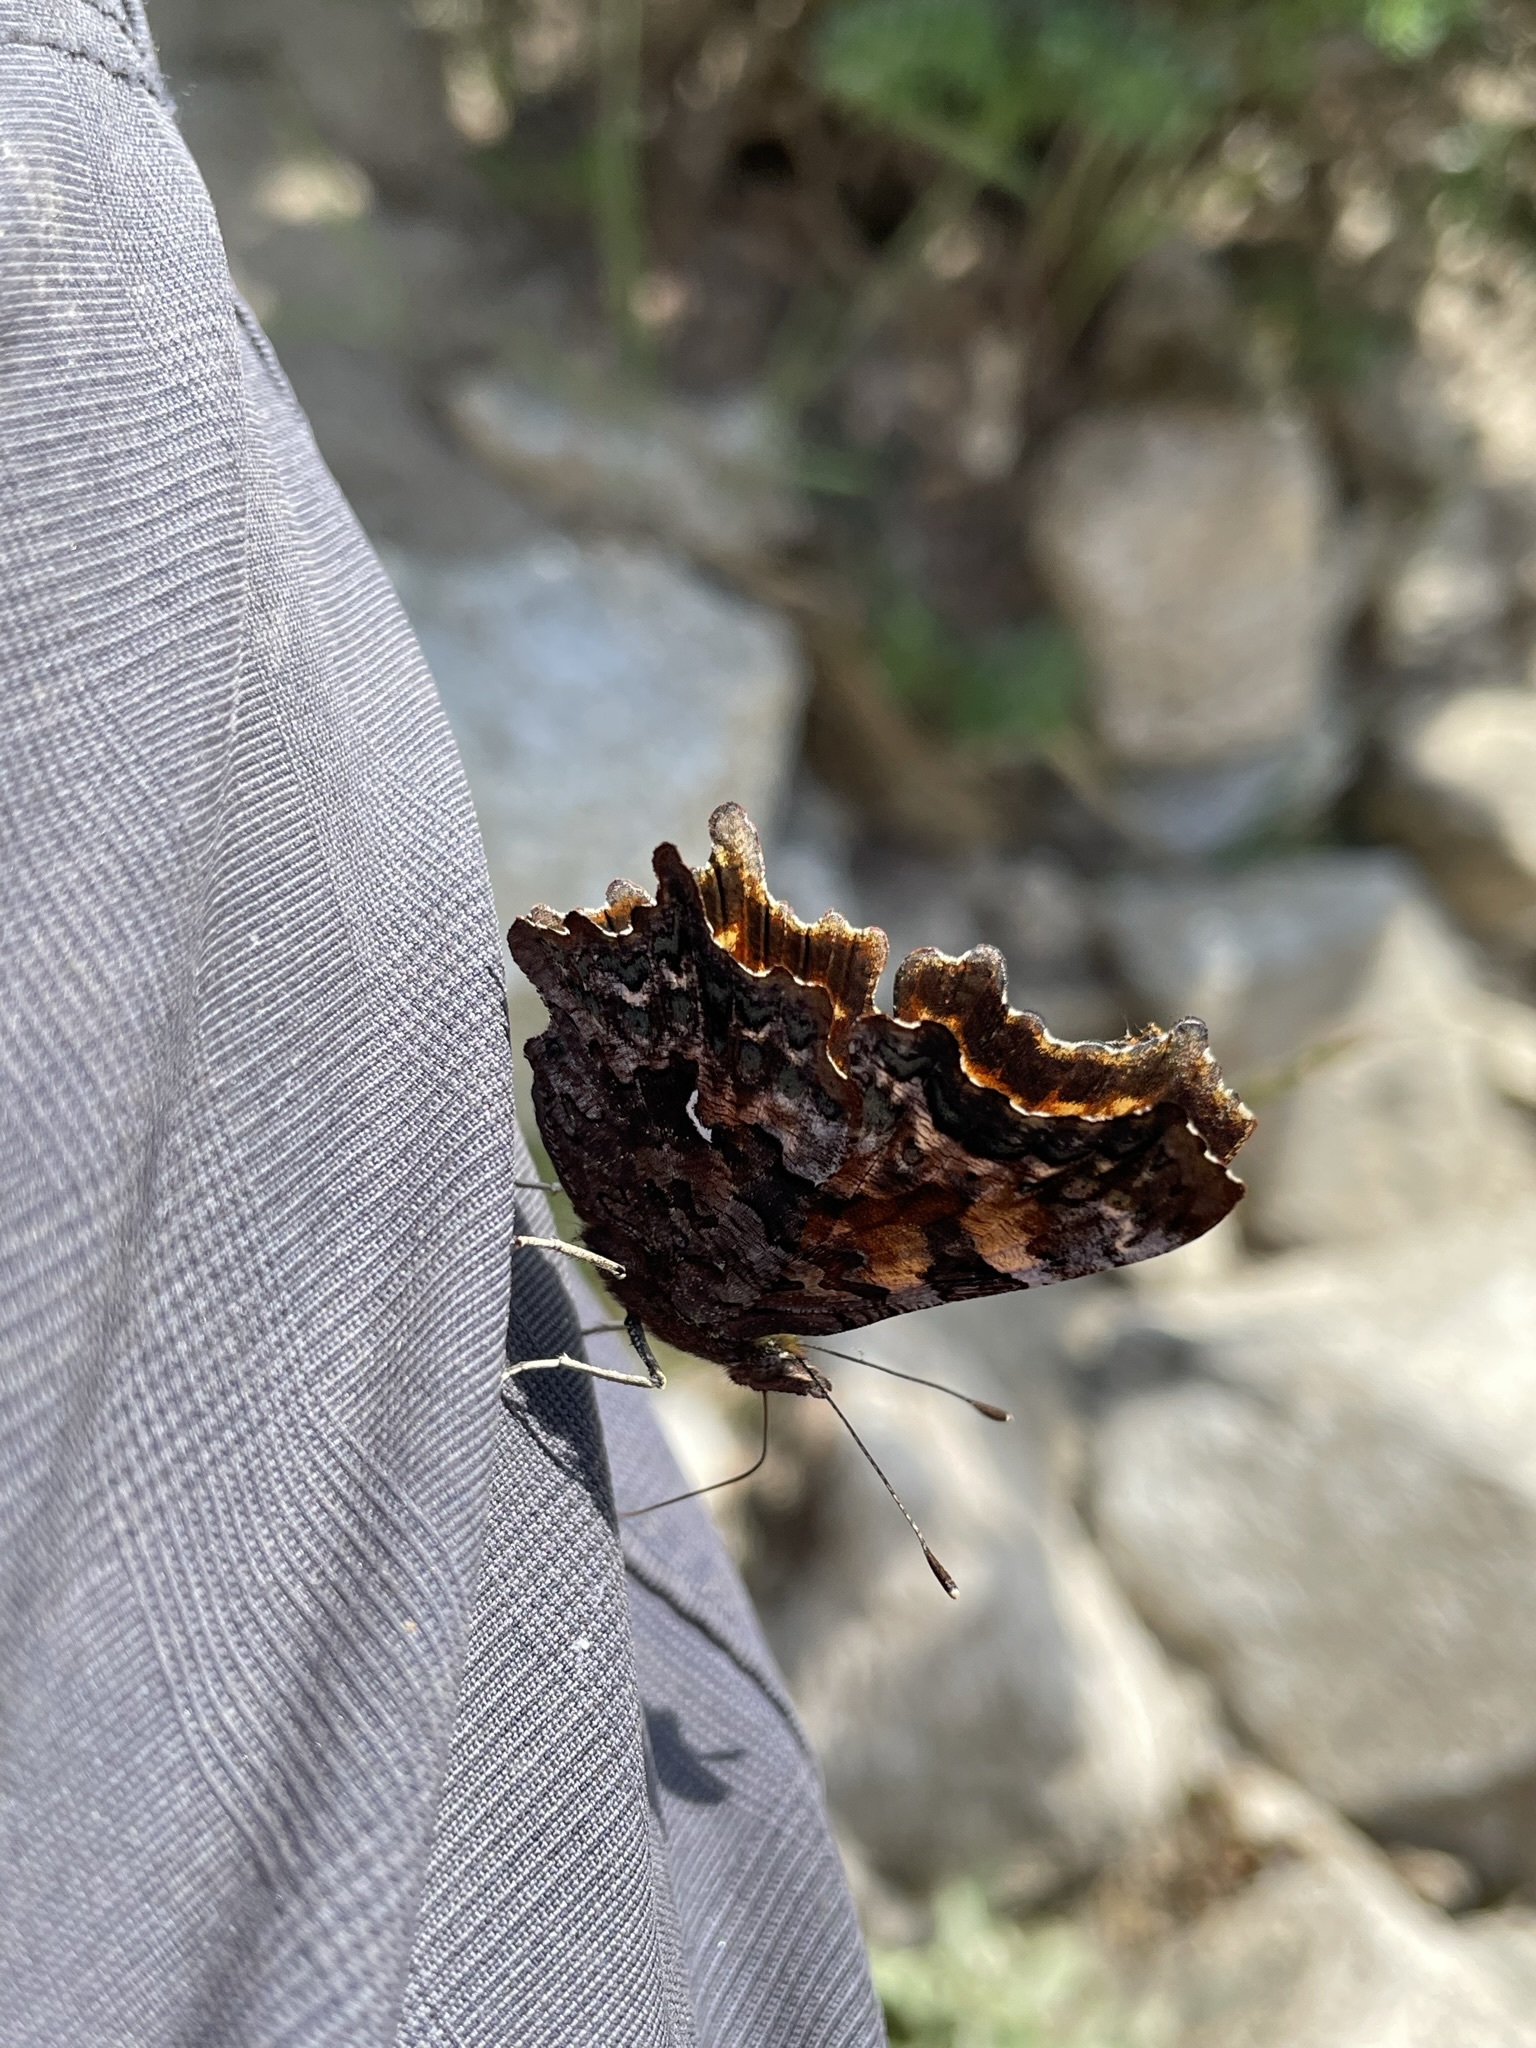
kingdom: Animalia
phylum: Arthropoda
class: Insecta
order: Lepidoptera
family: Nymphalidae
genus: Polygonia
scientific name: Polygonia faunus
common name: Green comma
